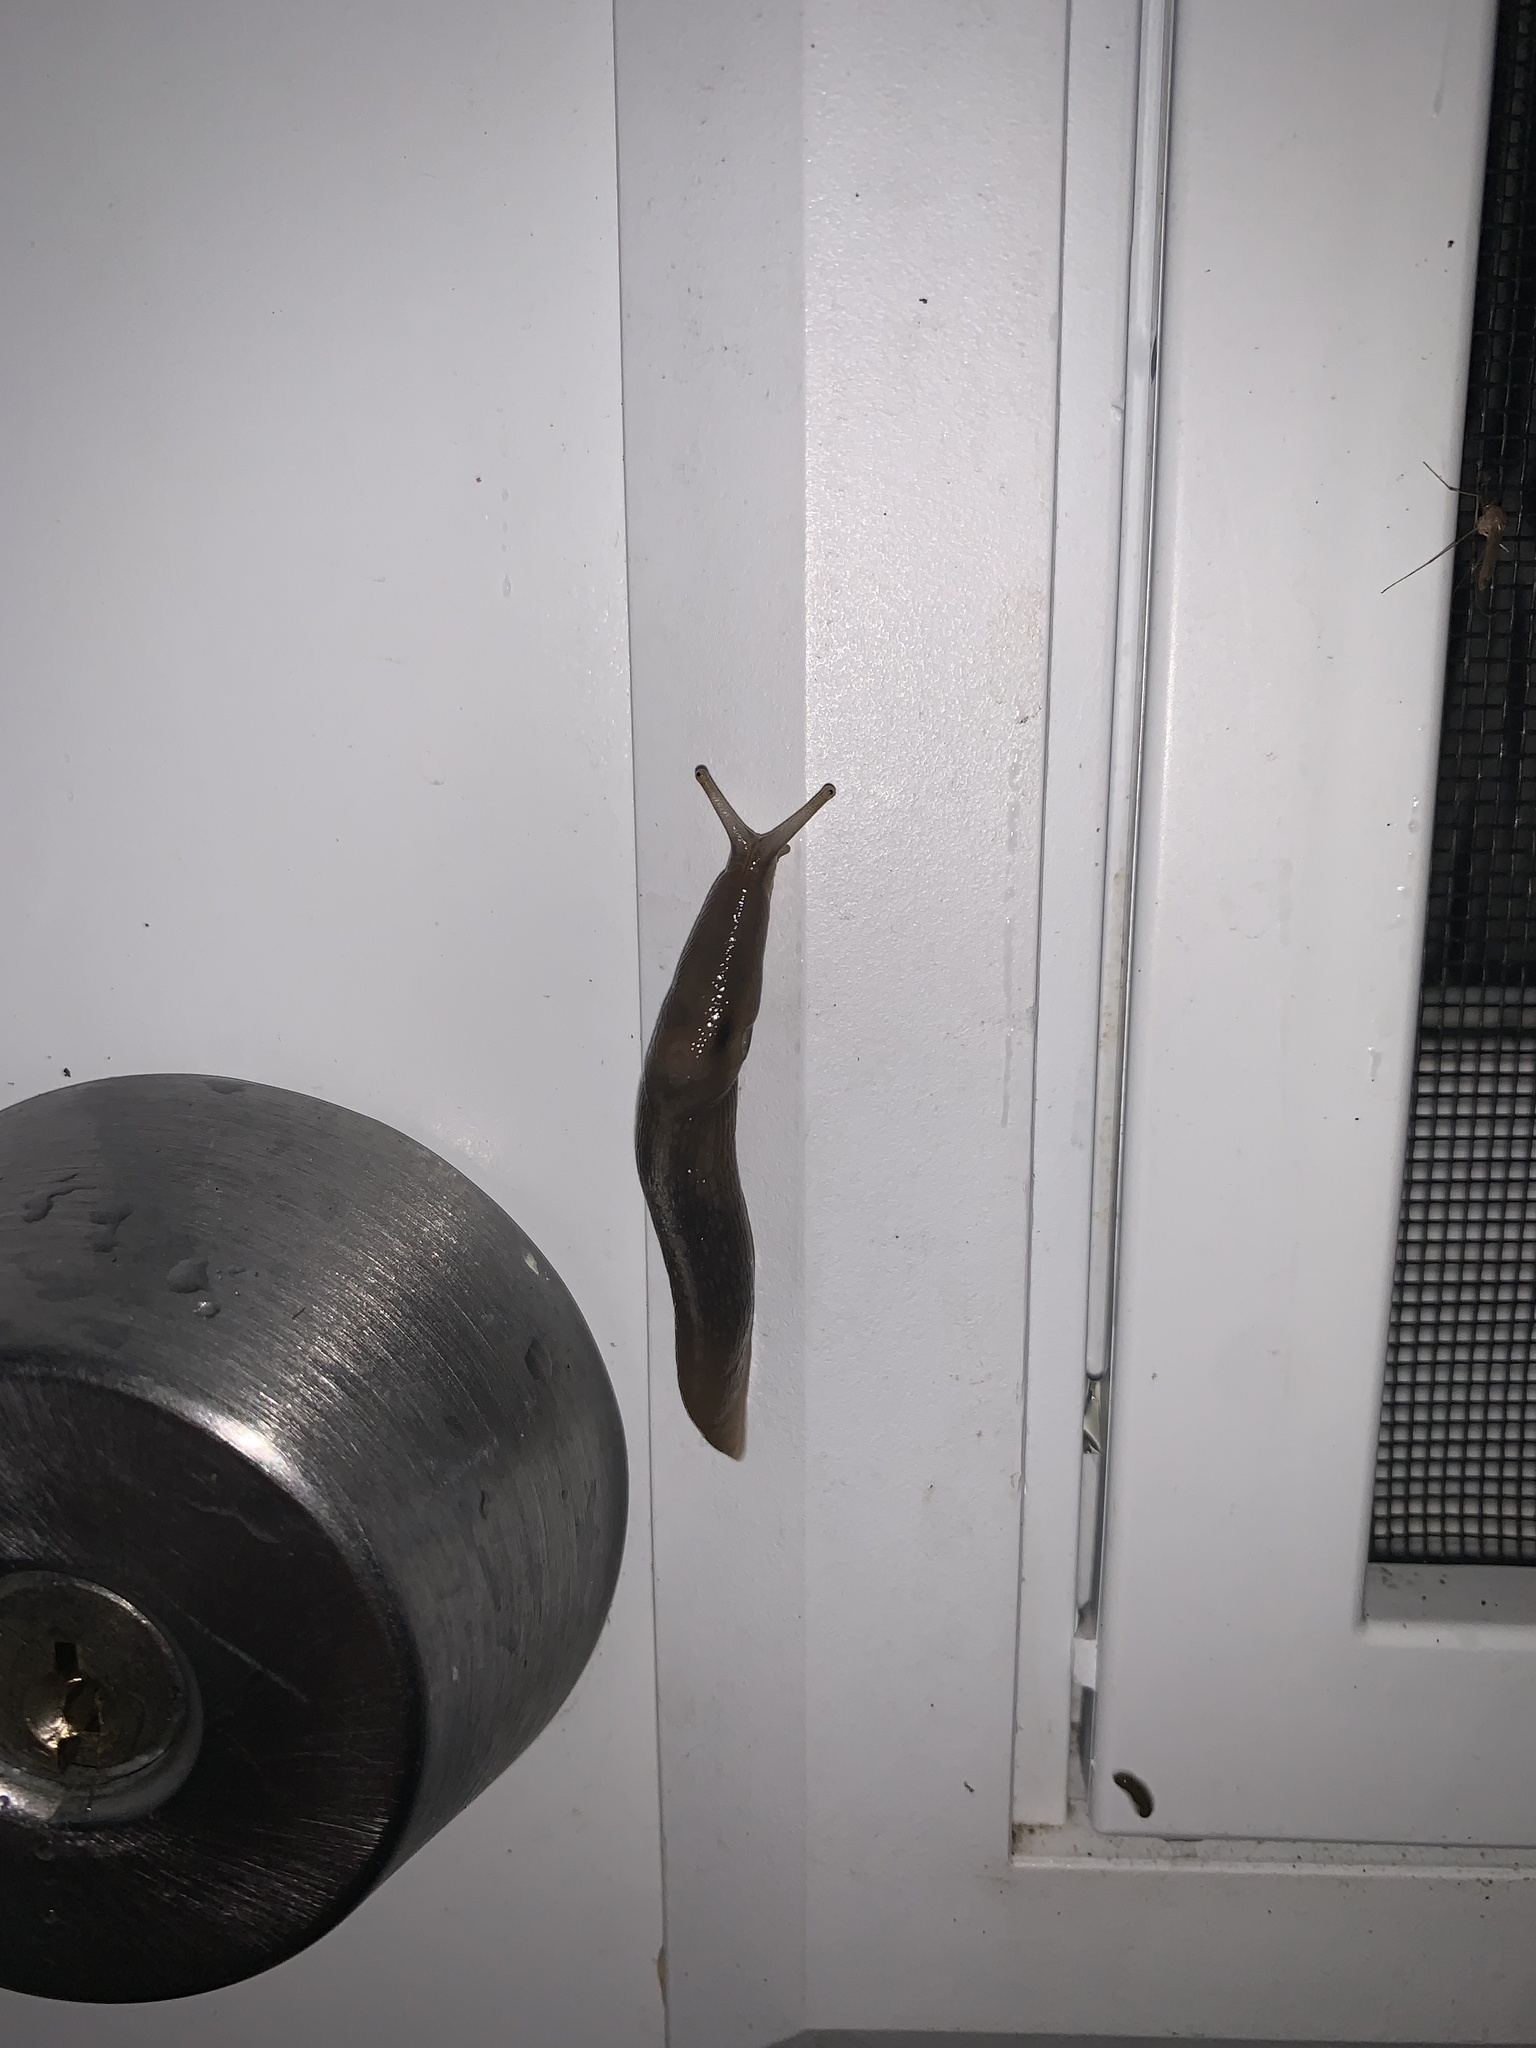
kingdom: Animalia
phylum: Mollusca
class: Gastropoda
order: Stylommatophora
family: Limacidae
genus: Lehmannia
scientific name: Lehmannia marginata
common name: Tree slug
